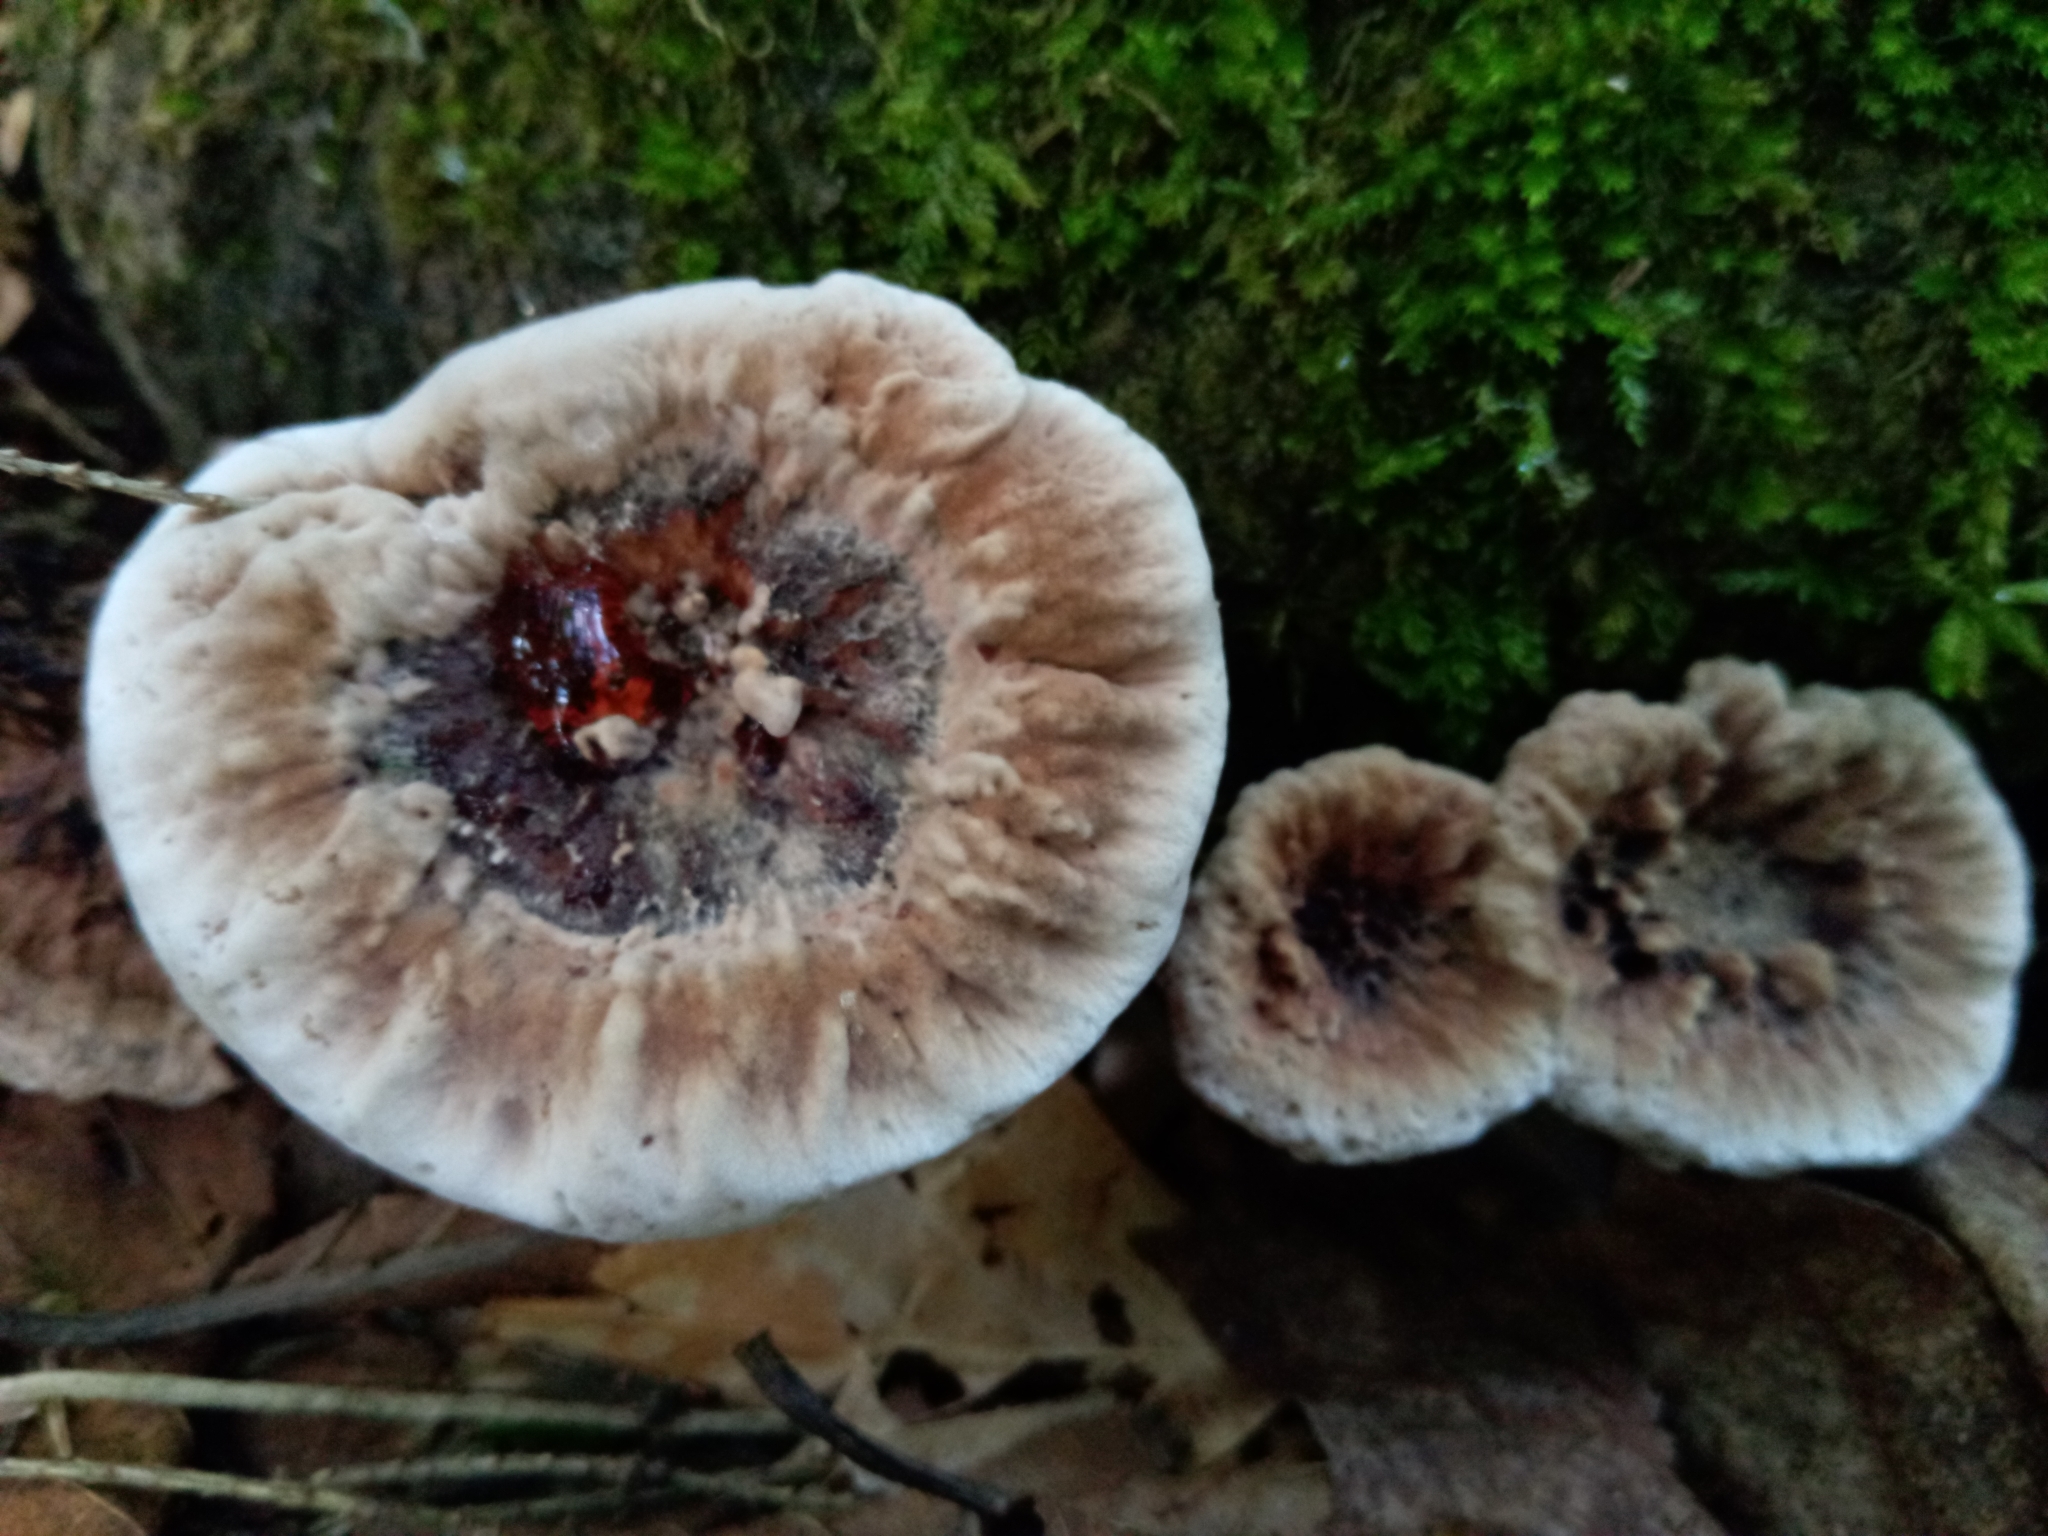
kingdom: Fungi
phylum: Basidiomycota
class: Agaricomycetes
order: Thelephorales
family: Bankeraceae
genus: Hydnellum
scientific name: Hydnellum ferrugineum
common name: Mealy tooth
